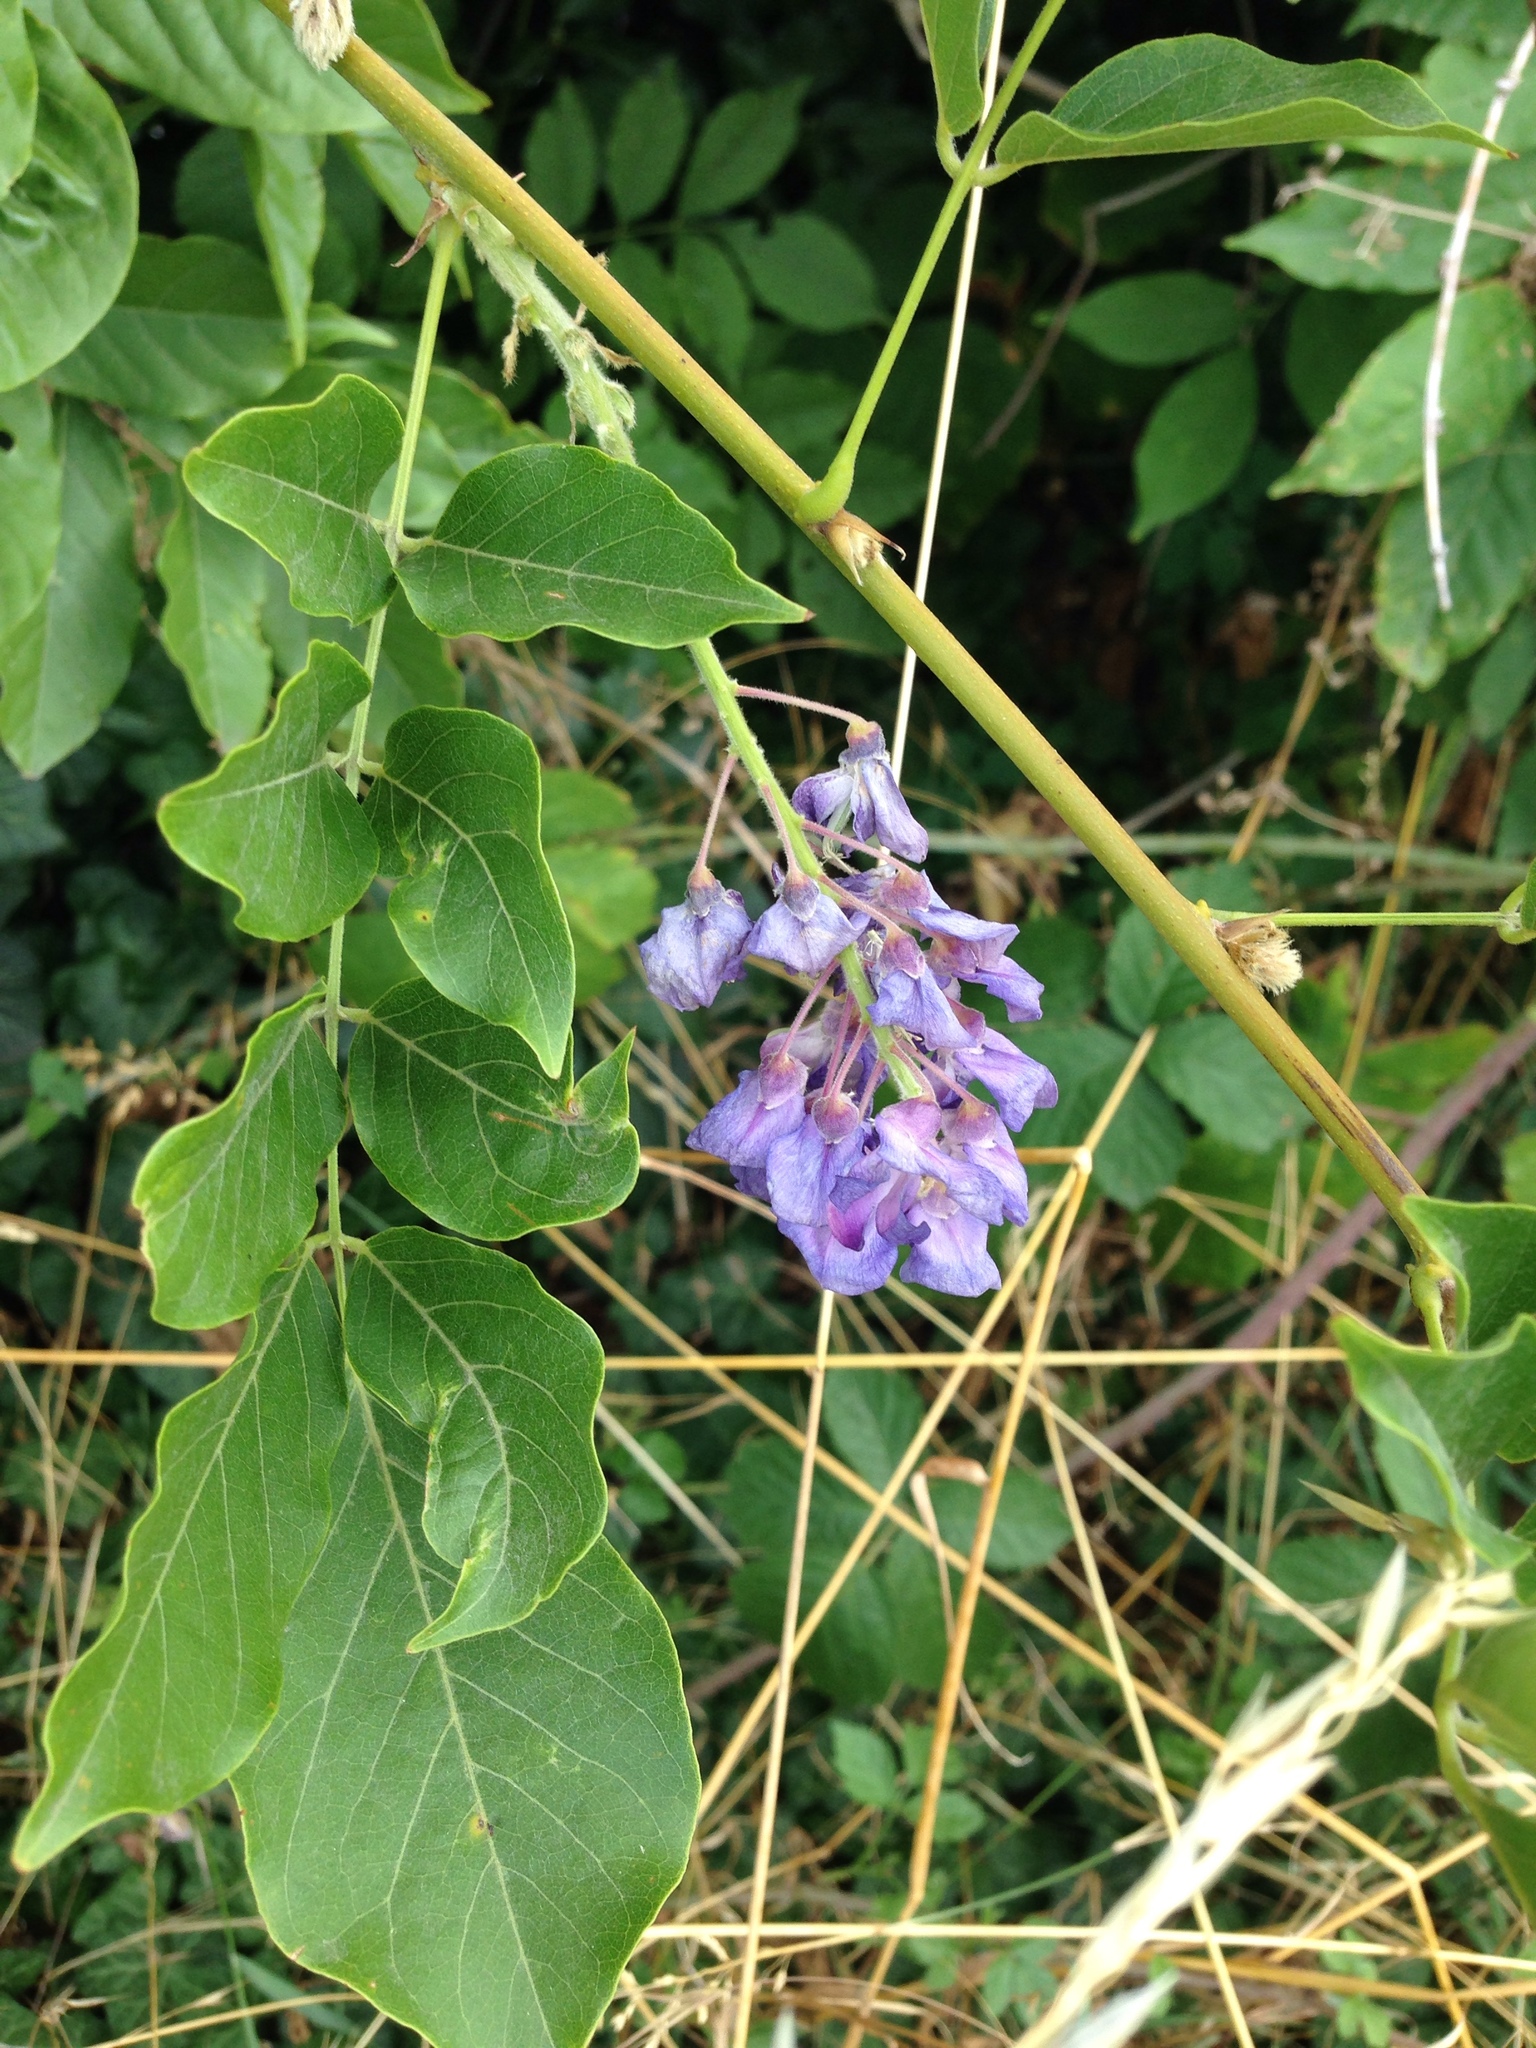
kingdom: Plantae
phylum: Tracheophyta
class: Magnoliopsida
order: Fabales
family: Fabaceae
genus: Wisteria
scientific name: Wisteria sinensis
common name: Chinese wisteria
